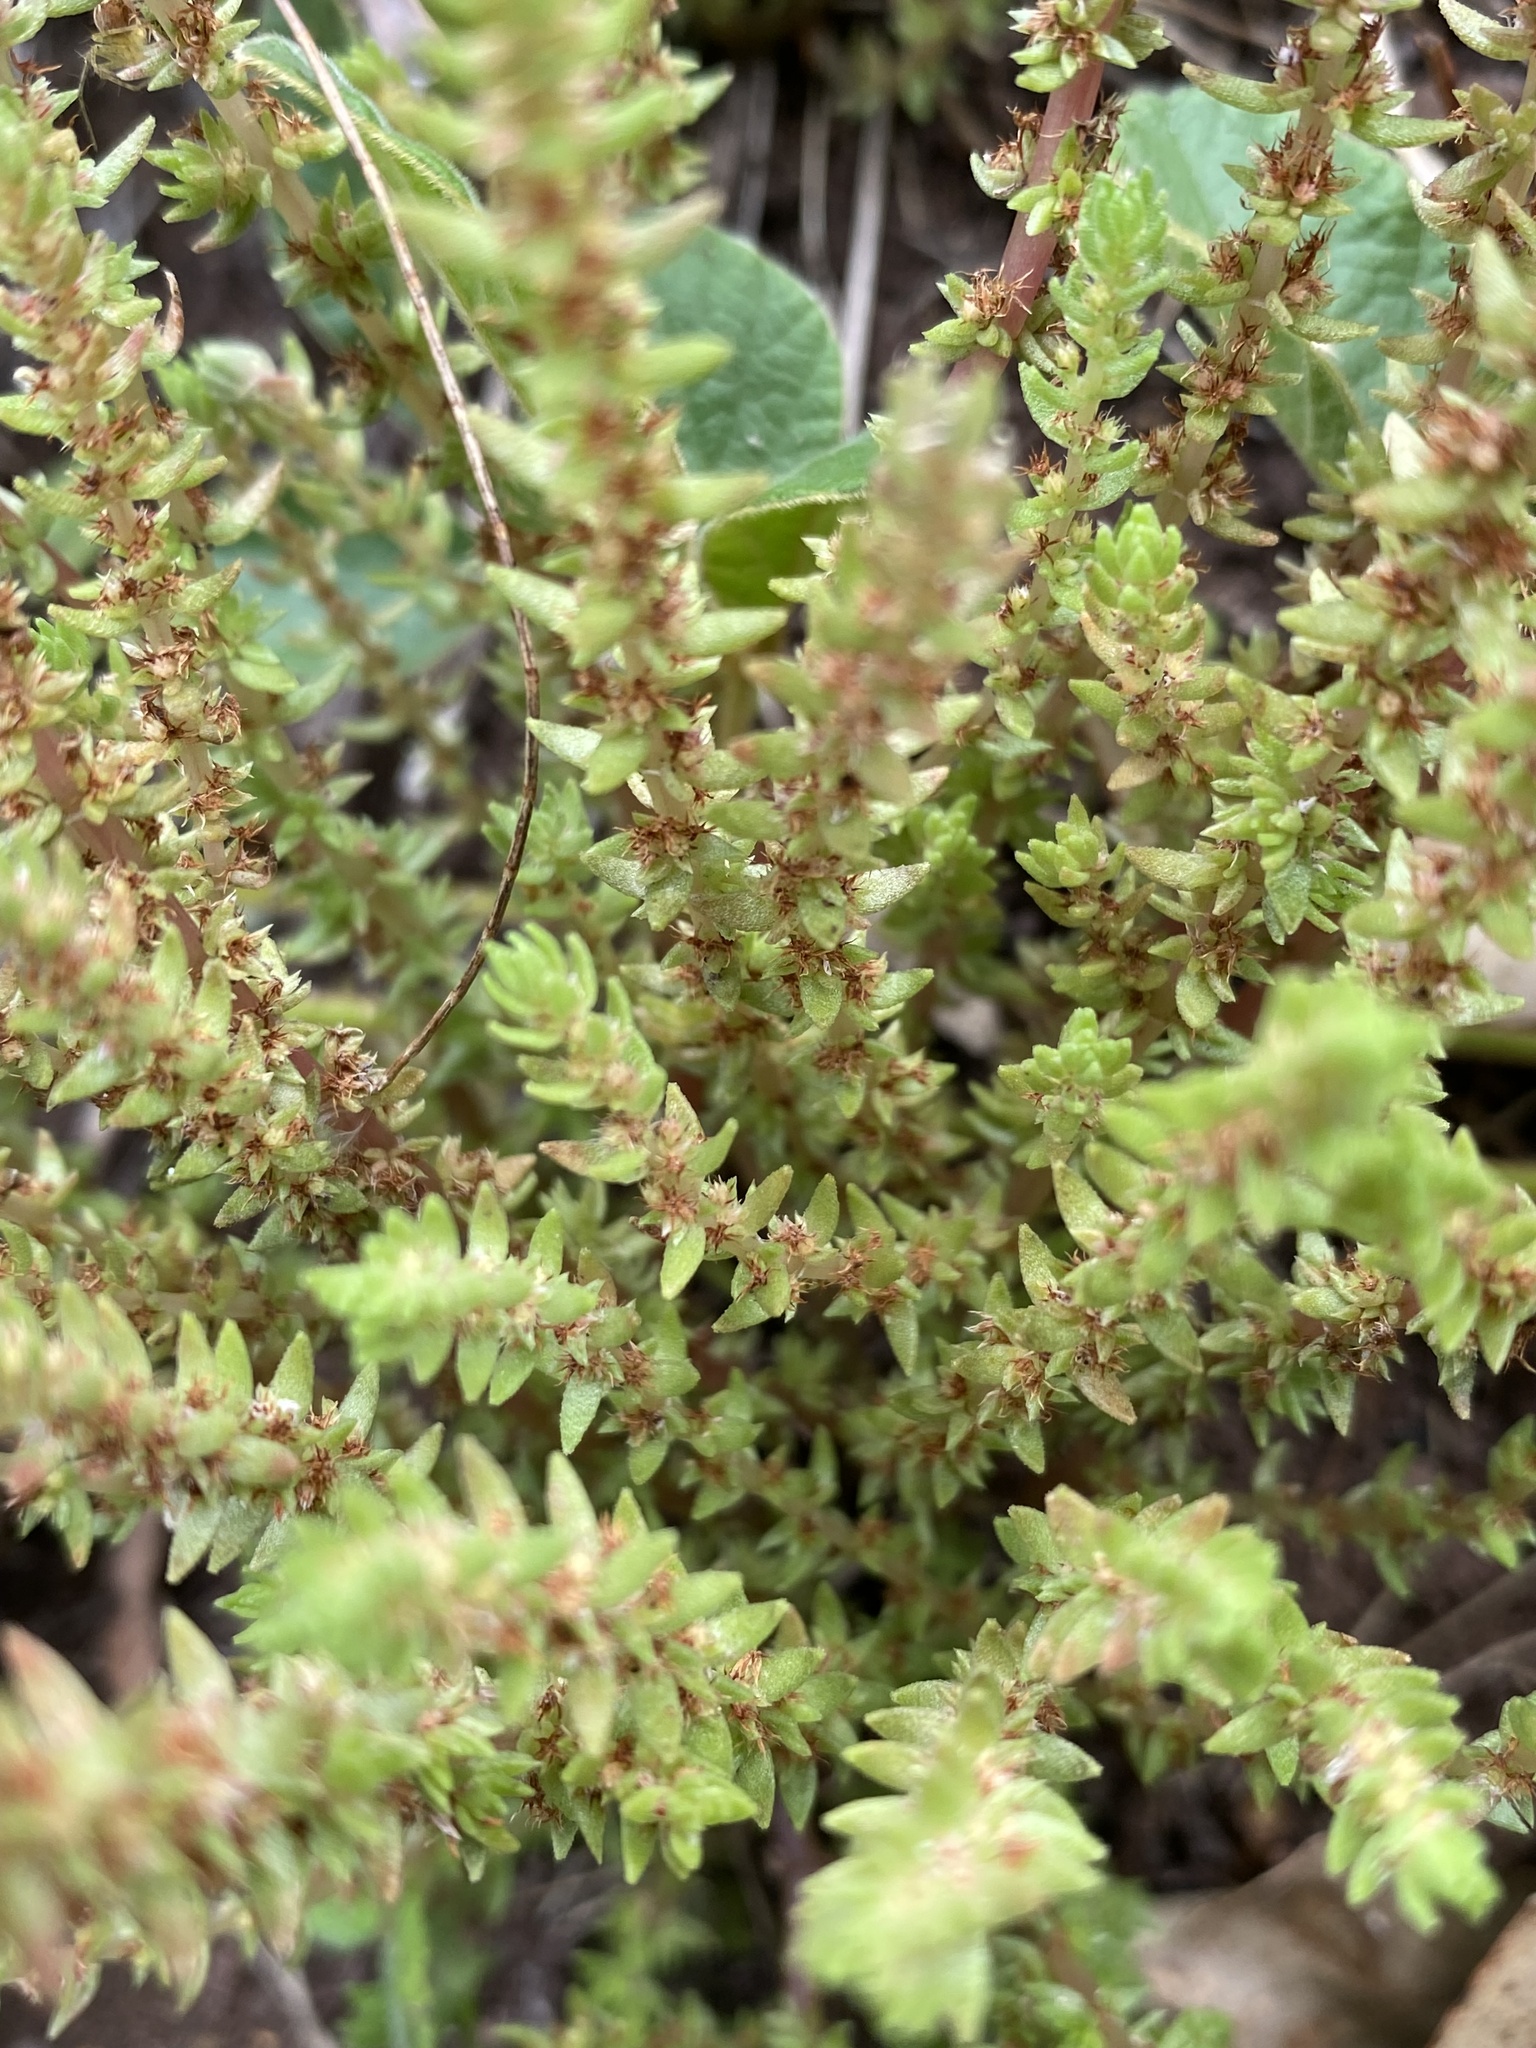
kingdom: Plantae
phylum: Tracheophyta
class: Magnoliopsida
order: Saxifragales
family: Crassulaceae
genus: Crassula
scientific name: Crassula sieberiana
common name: Siberian pygmyweed
